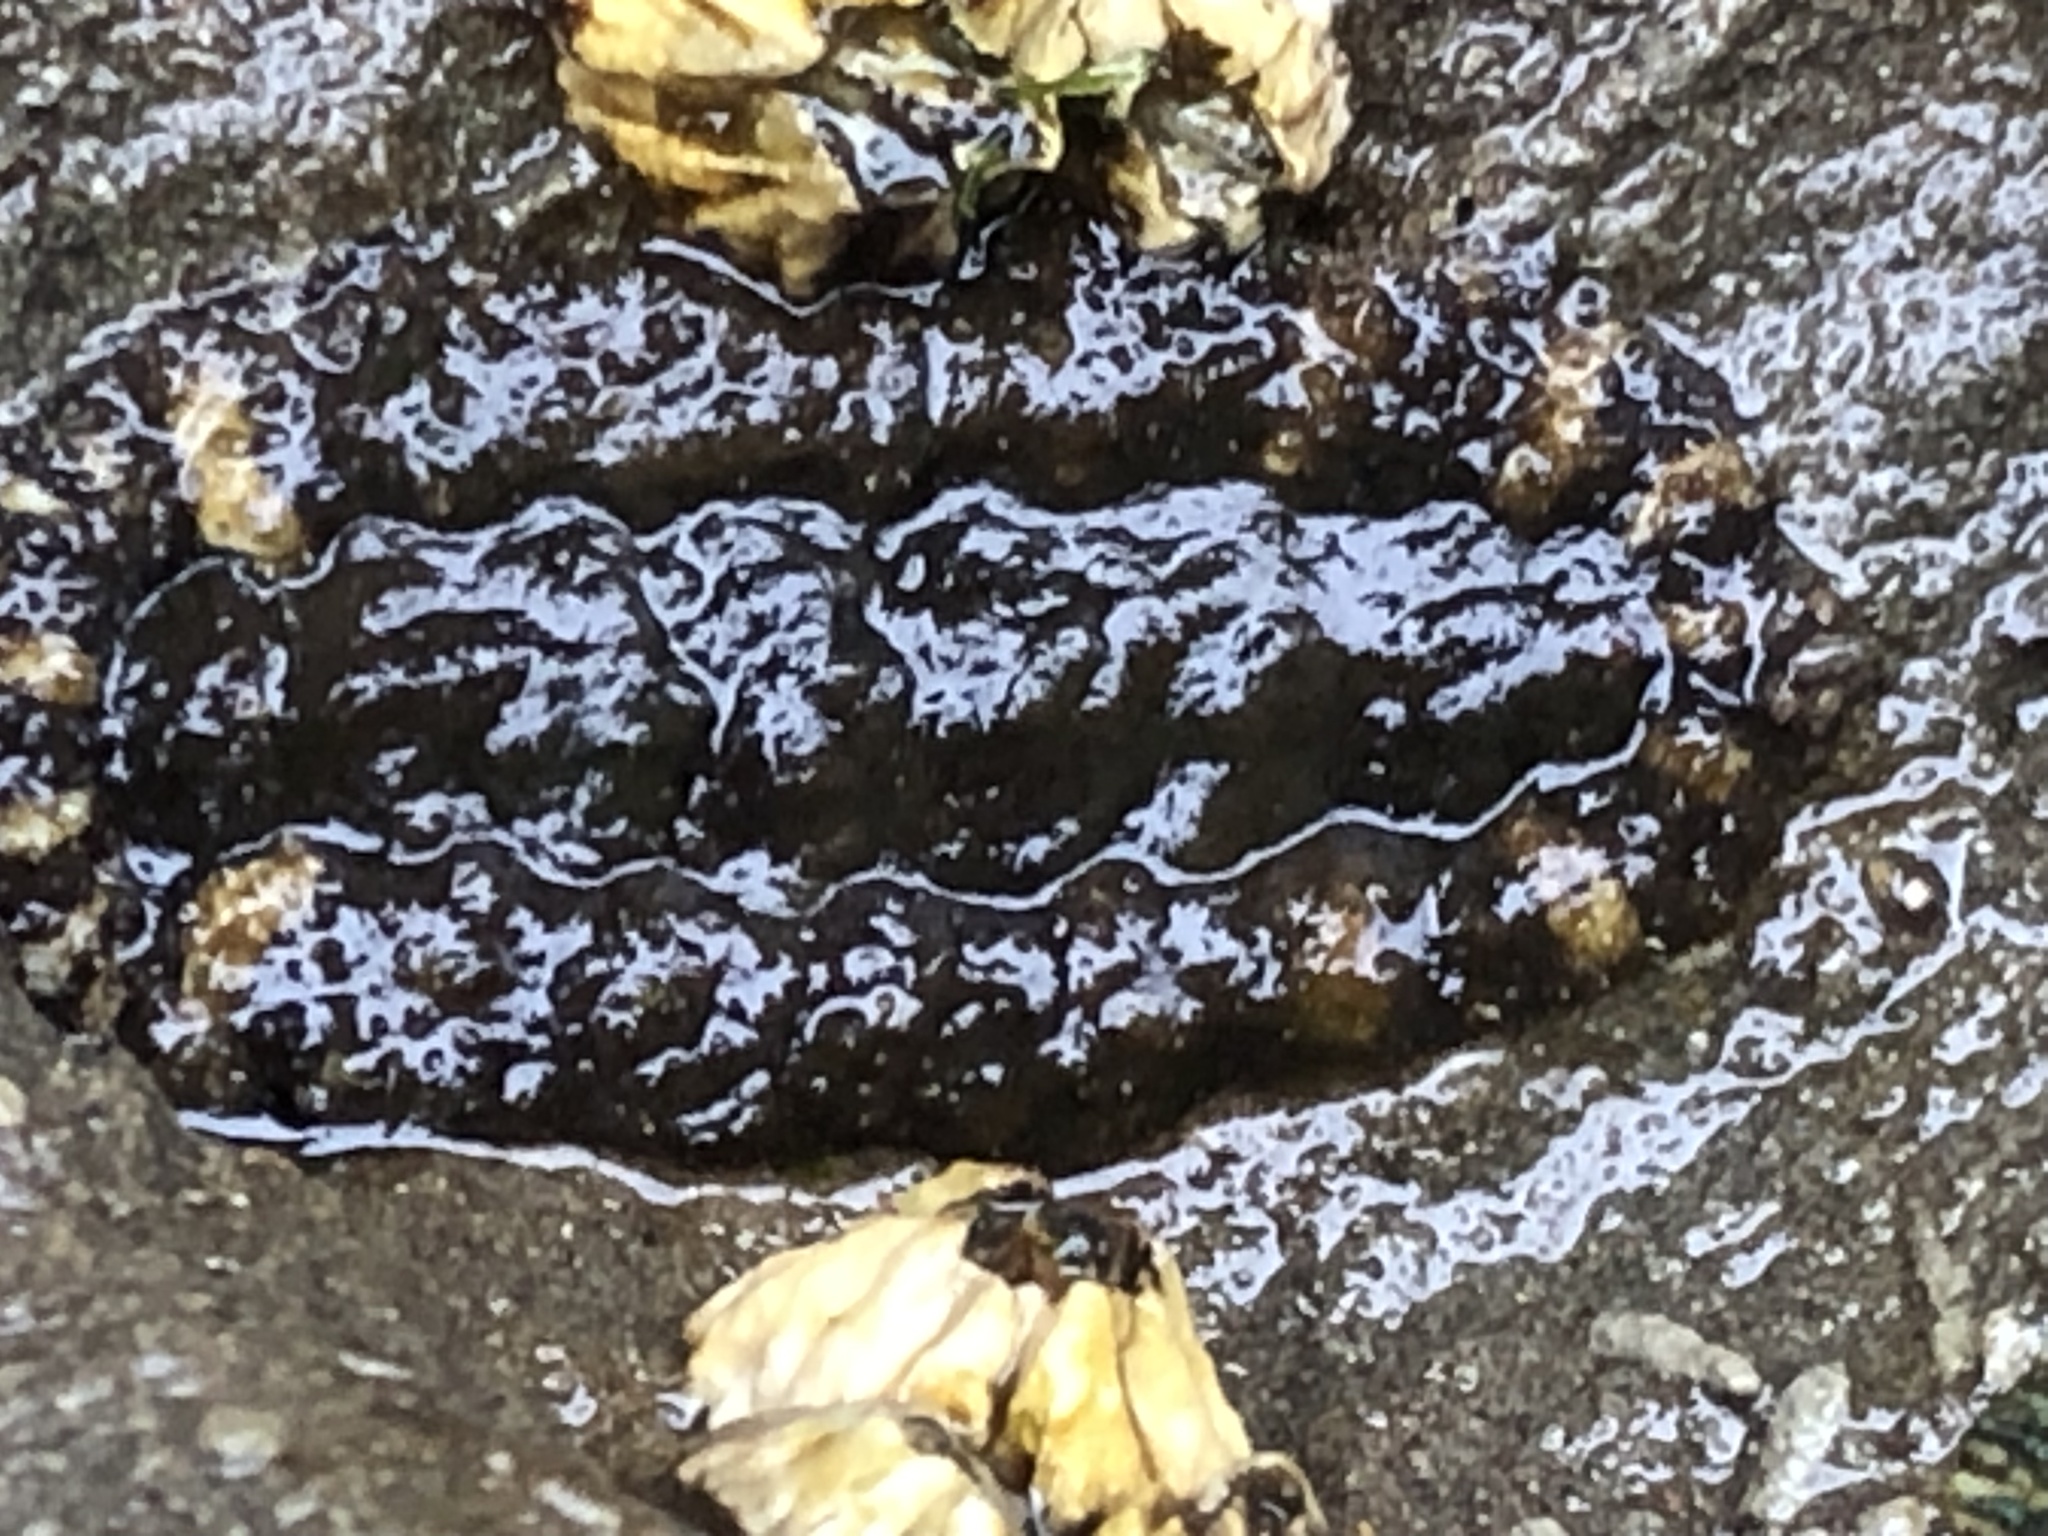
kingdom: Animalia
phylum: Mollusca
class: Polyplacophora
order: Chitonida
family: Tonicellidae
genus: Nuttallina
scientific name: Nuttallina californica
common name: California nuttall chiton
